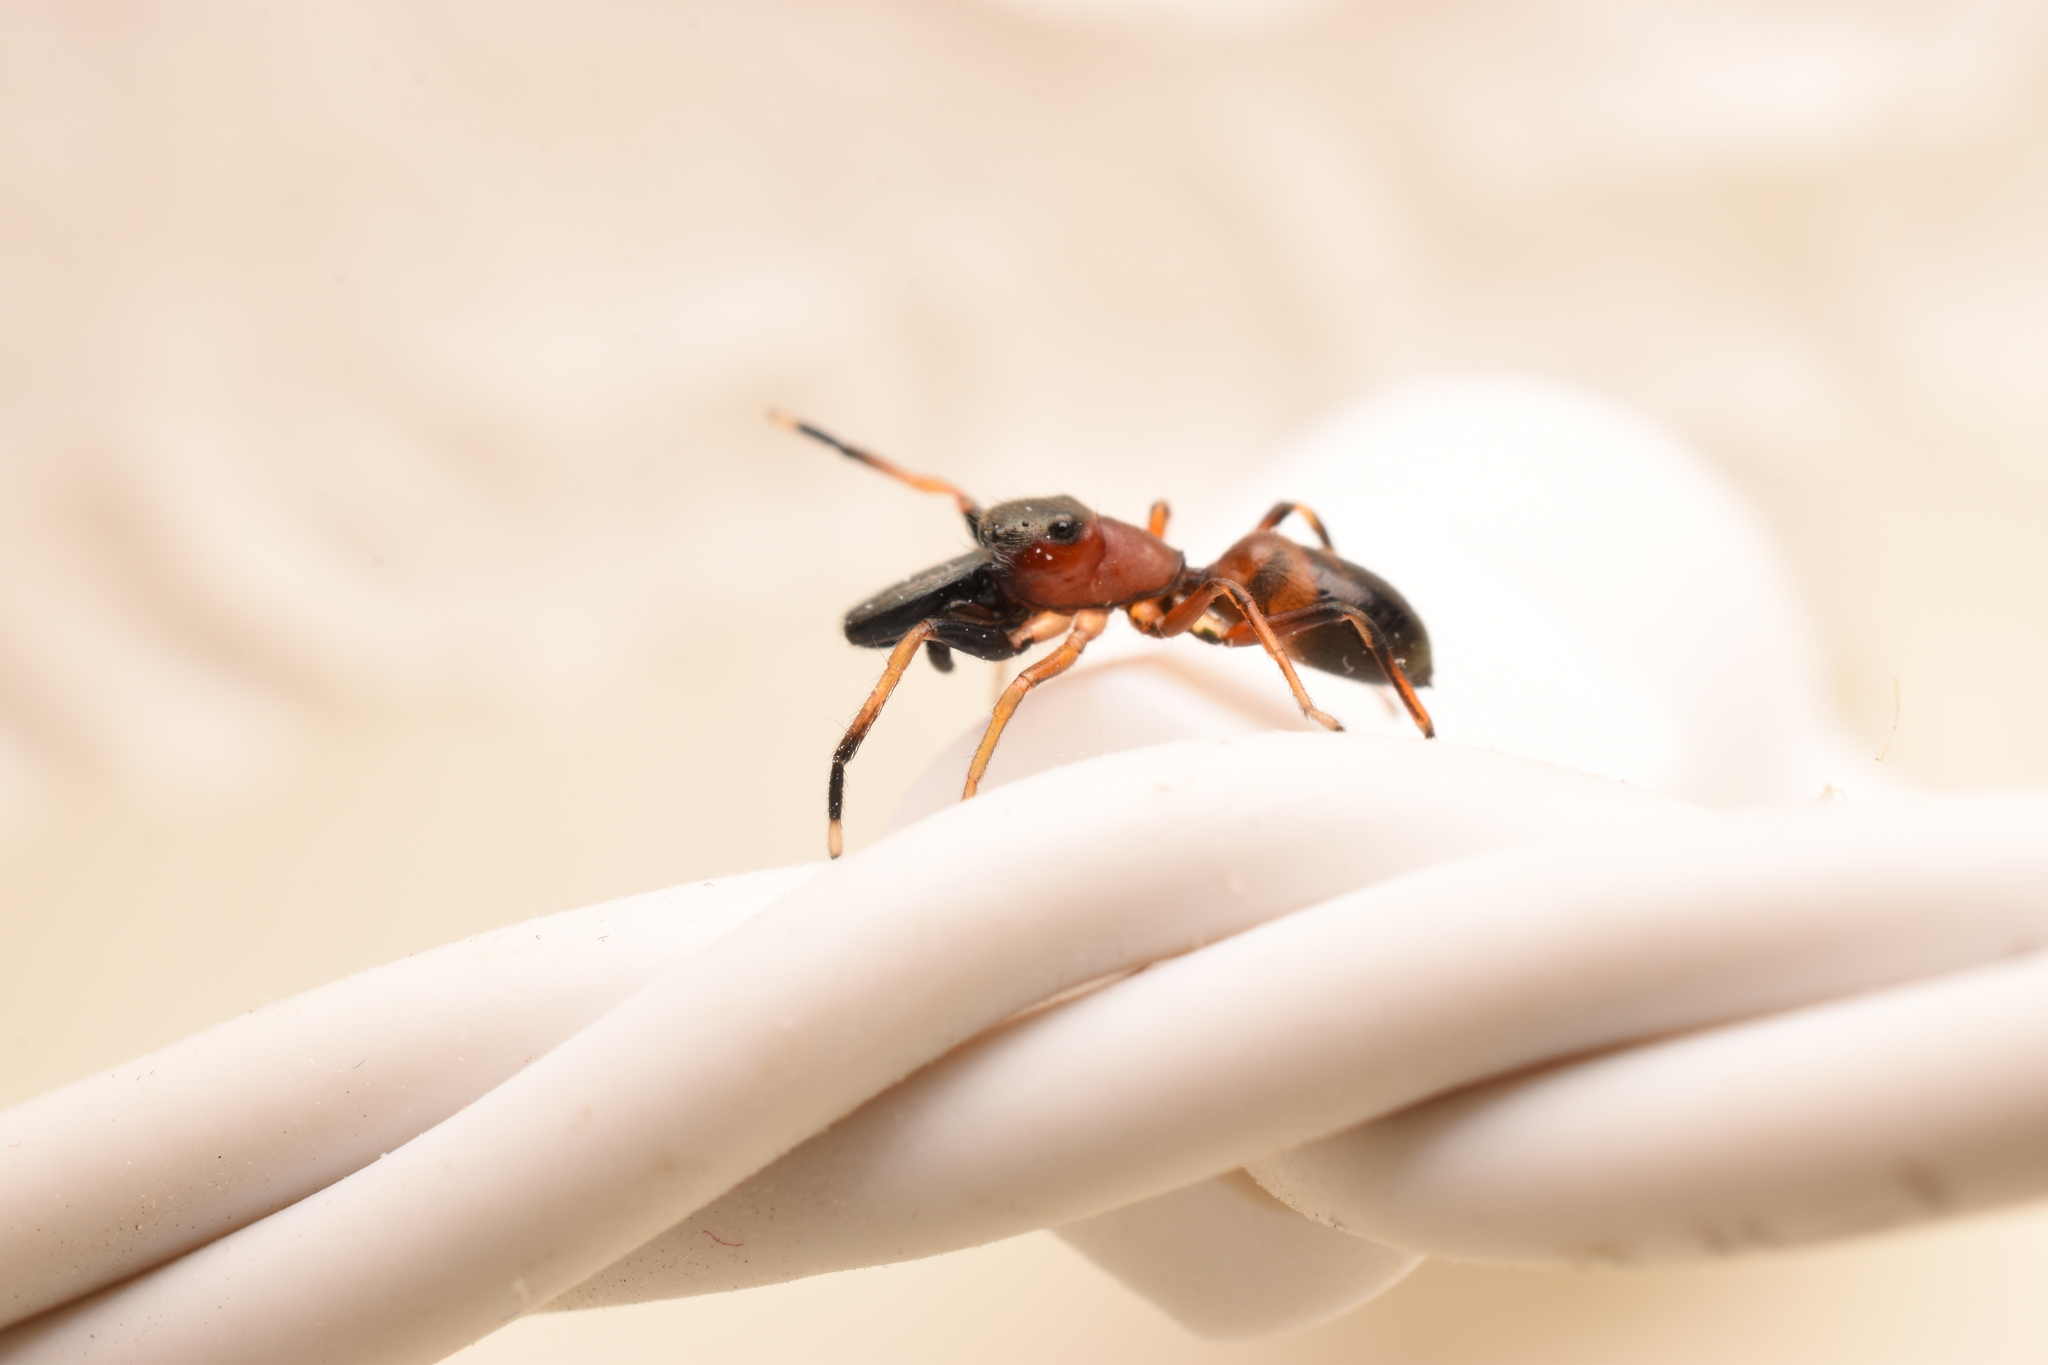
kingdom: Animalia
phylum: Arthropoda
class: Arachnida
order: Araneae
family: Salticidae
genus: Myrmarachne
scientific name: Myrmarachne formicaria
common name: Ant mimic jumping spider
